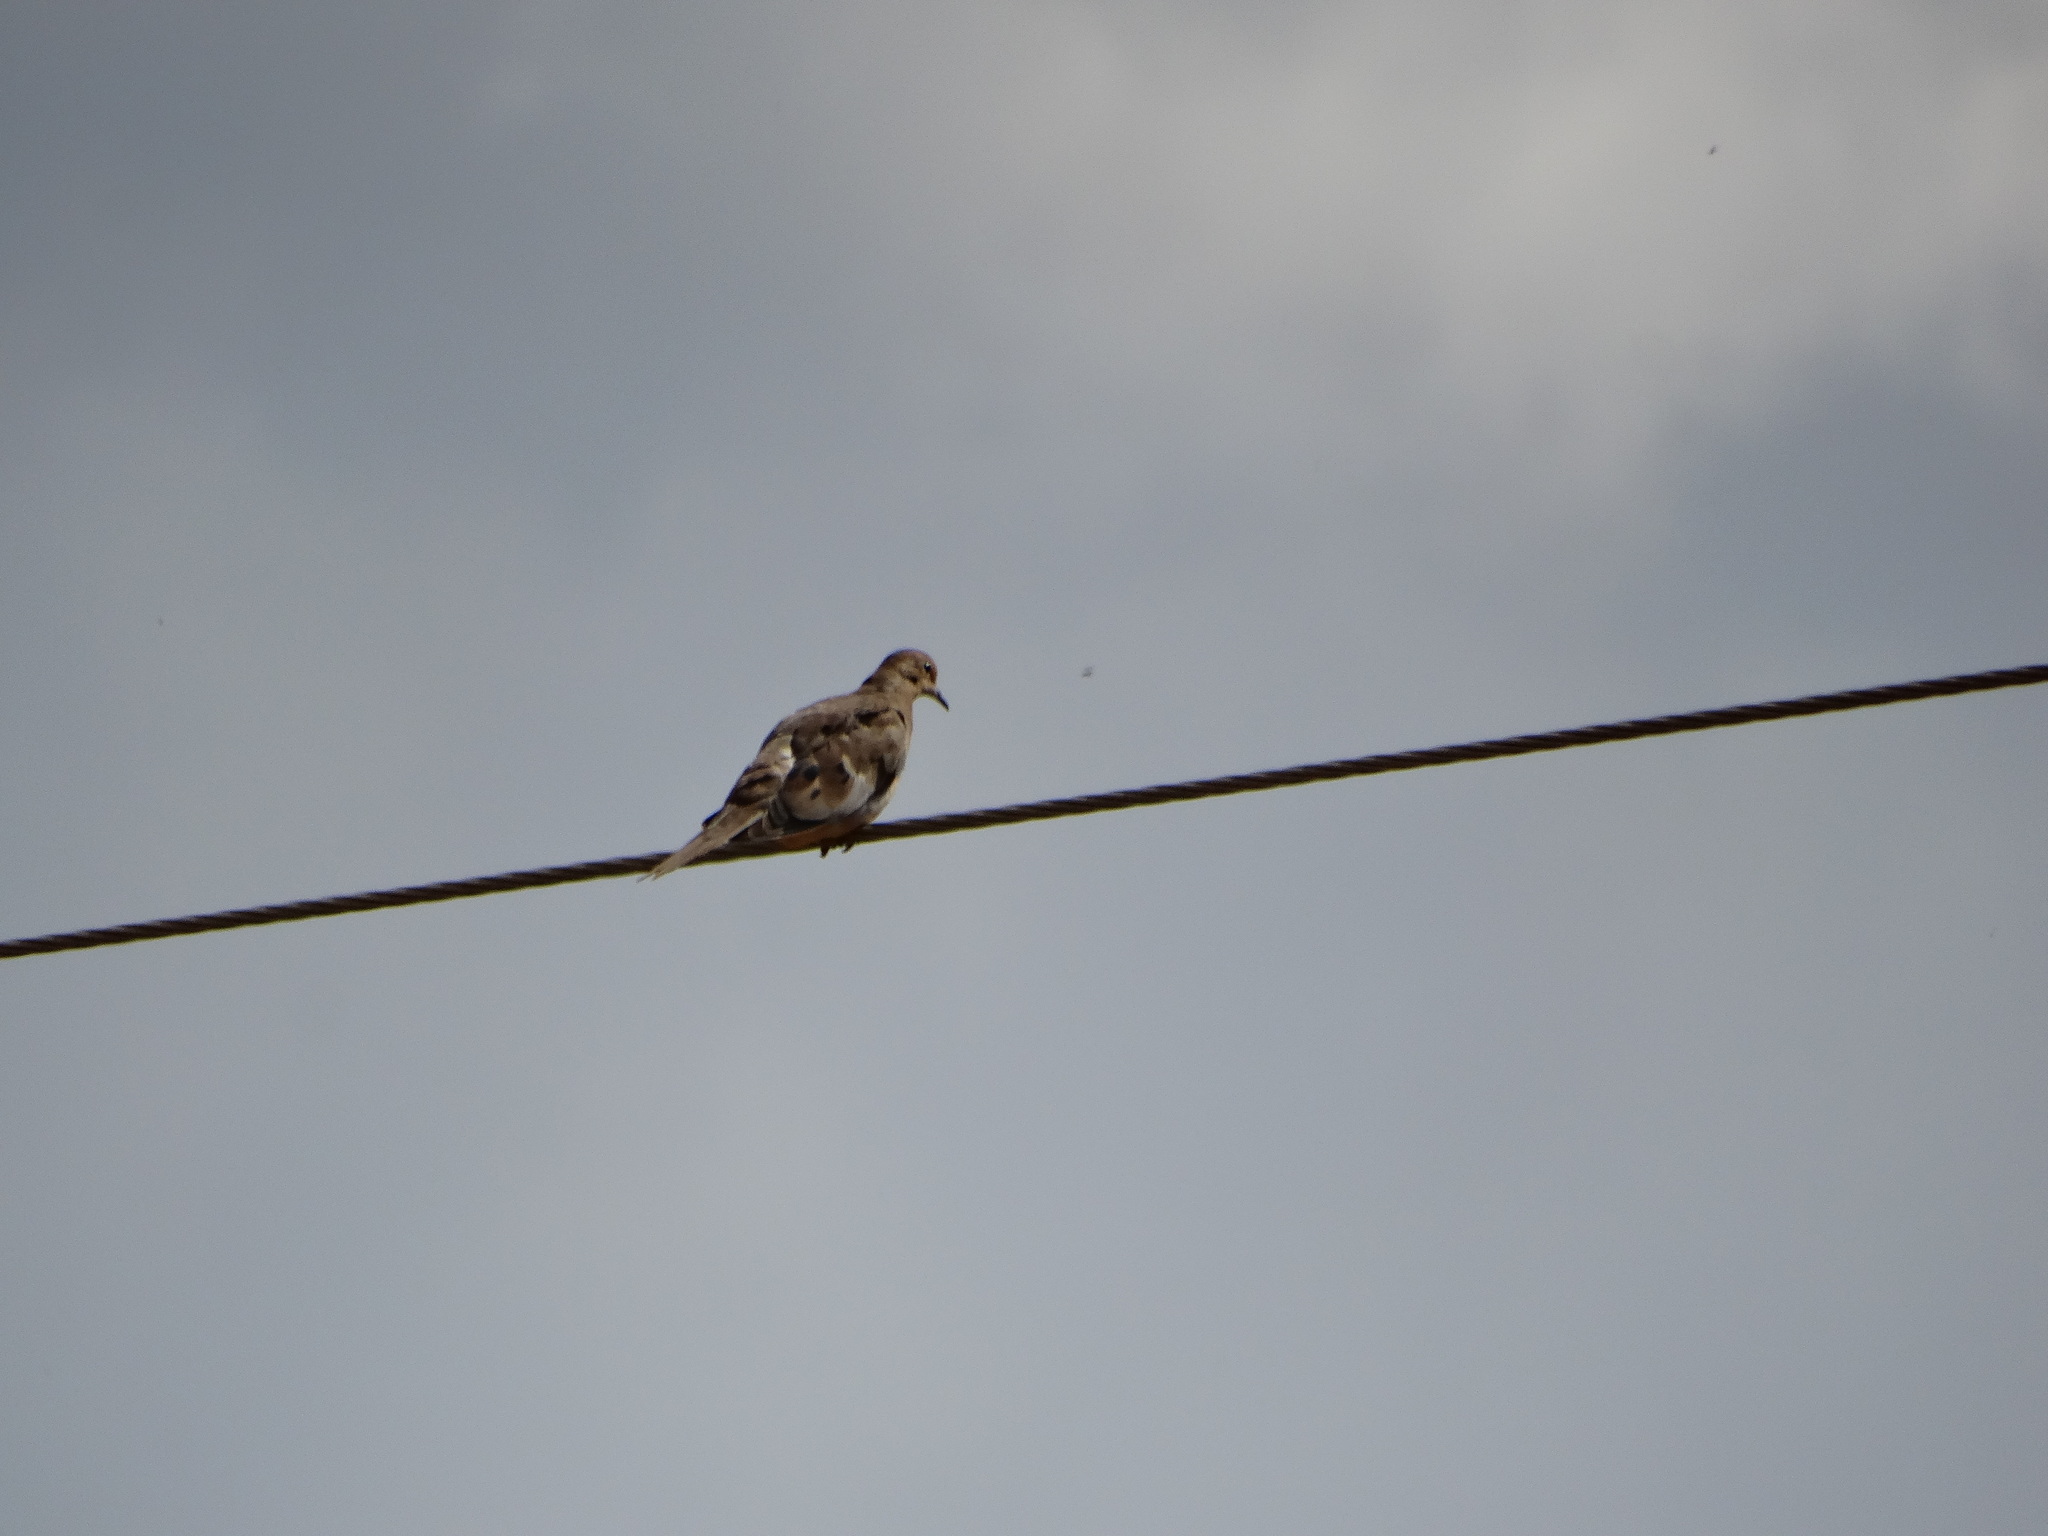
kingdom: Animalia
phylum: Chordata
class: Aves
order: Columbiformes
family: Columbidae
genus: Zenaida
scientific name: Zenaida macroura
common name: Mourning dove
